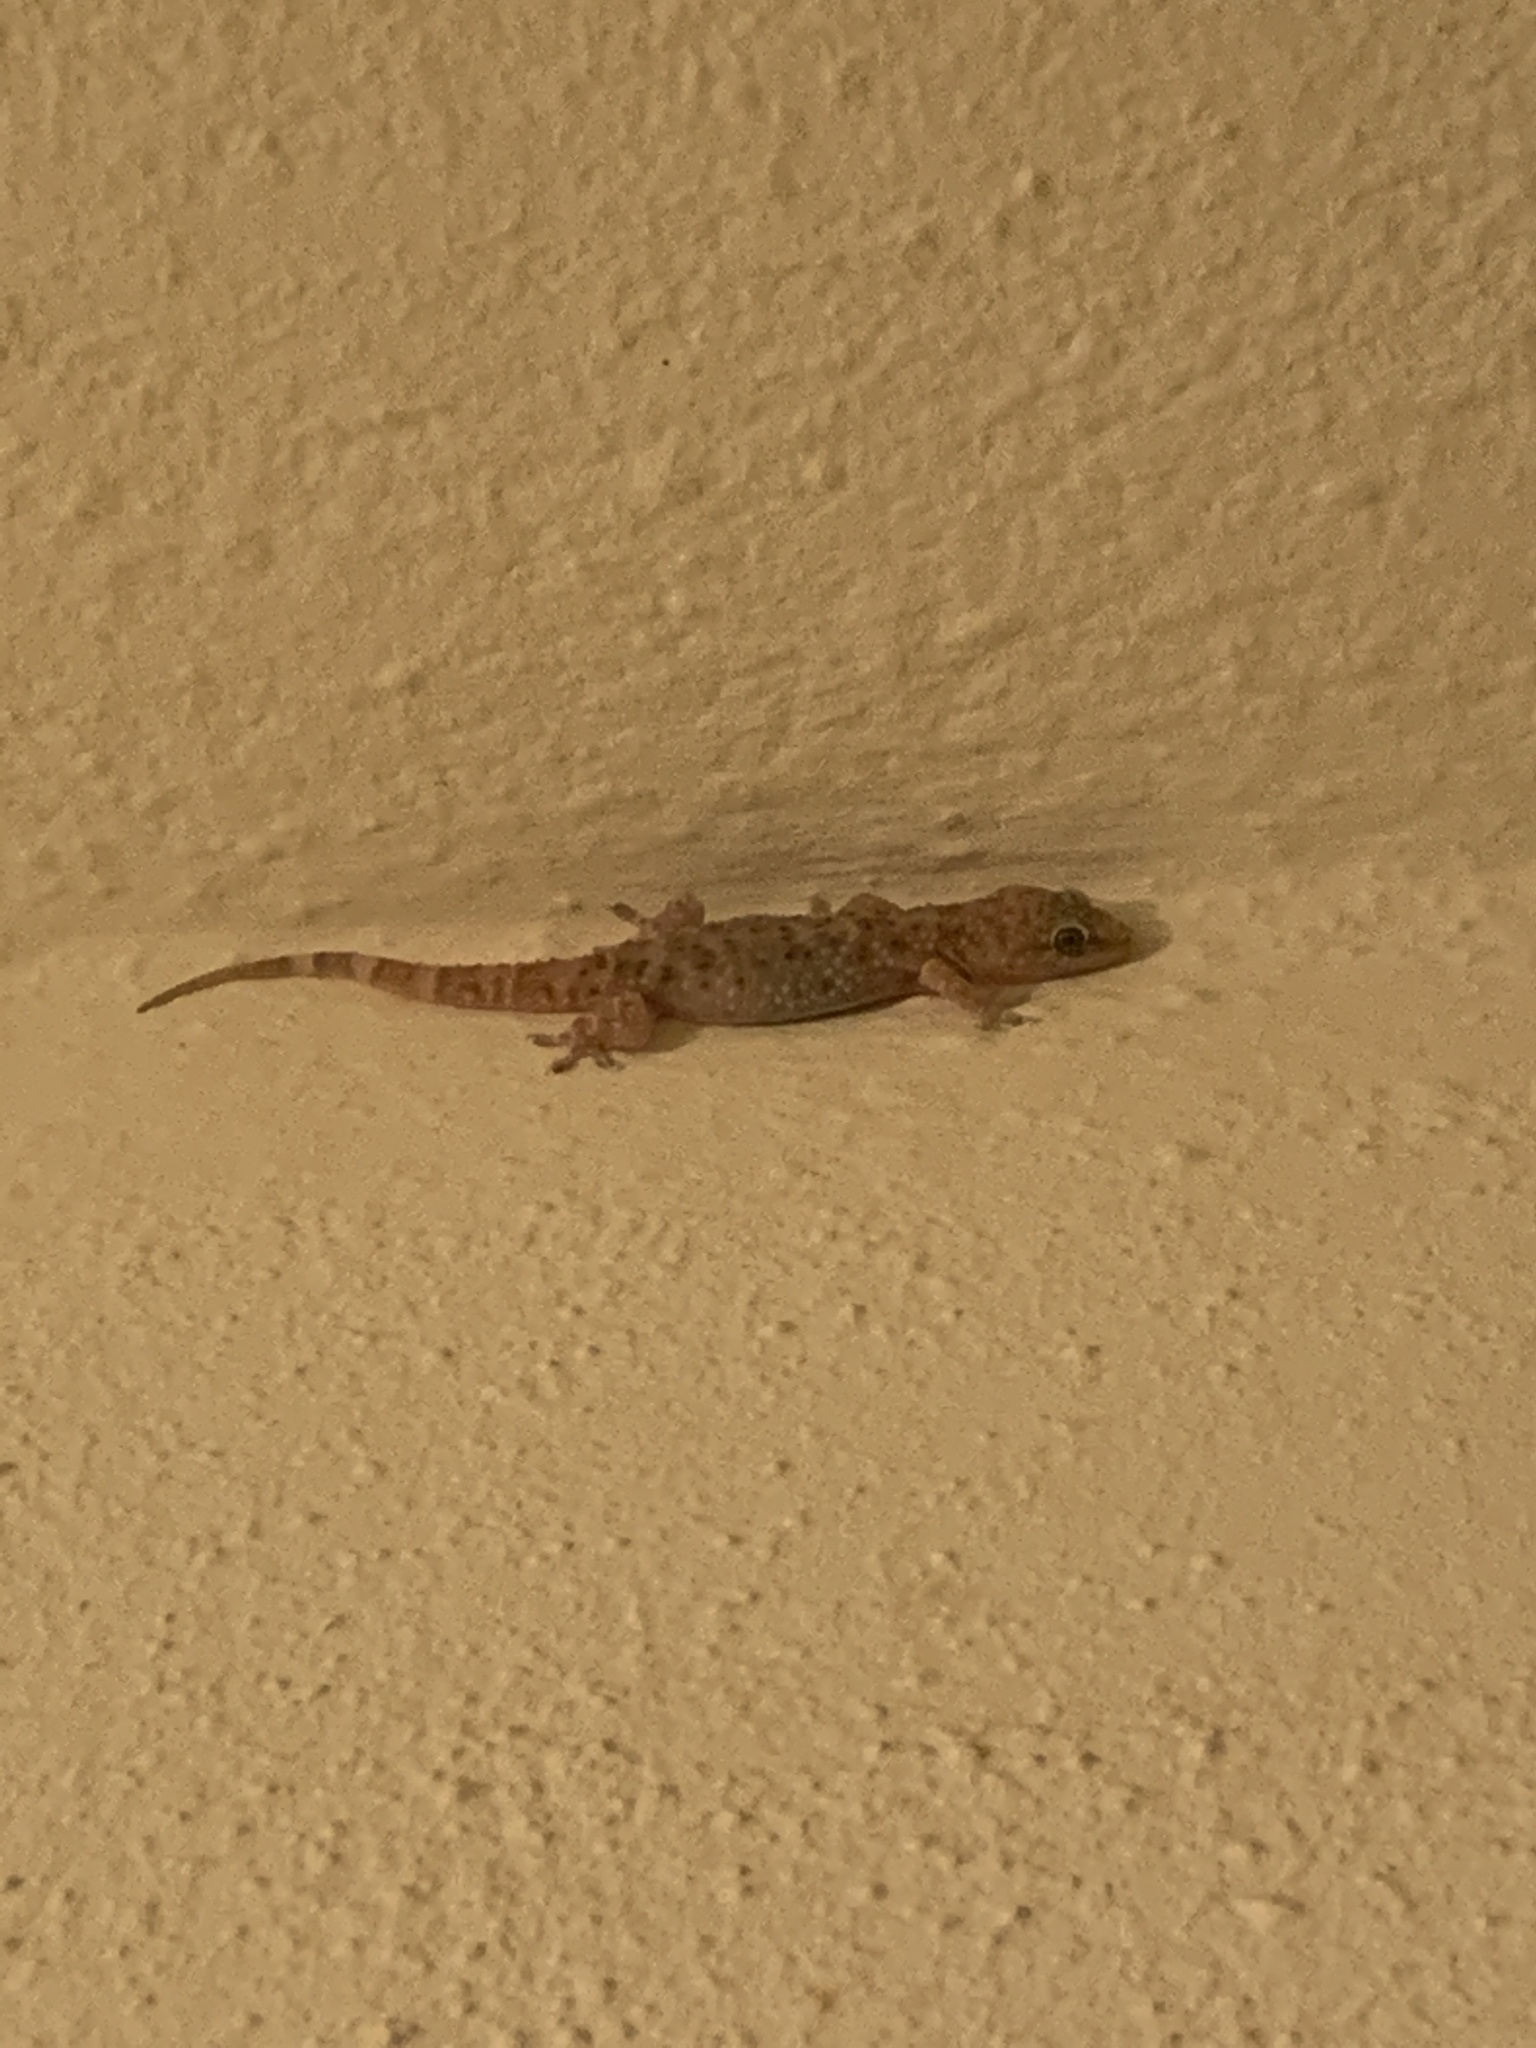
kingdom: Animalia
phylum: Chordata
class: Squamata
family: Gekkonidae
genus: Hemidactylus
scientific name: Hemidactylus turcicus
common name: Turkish gecko
